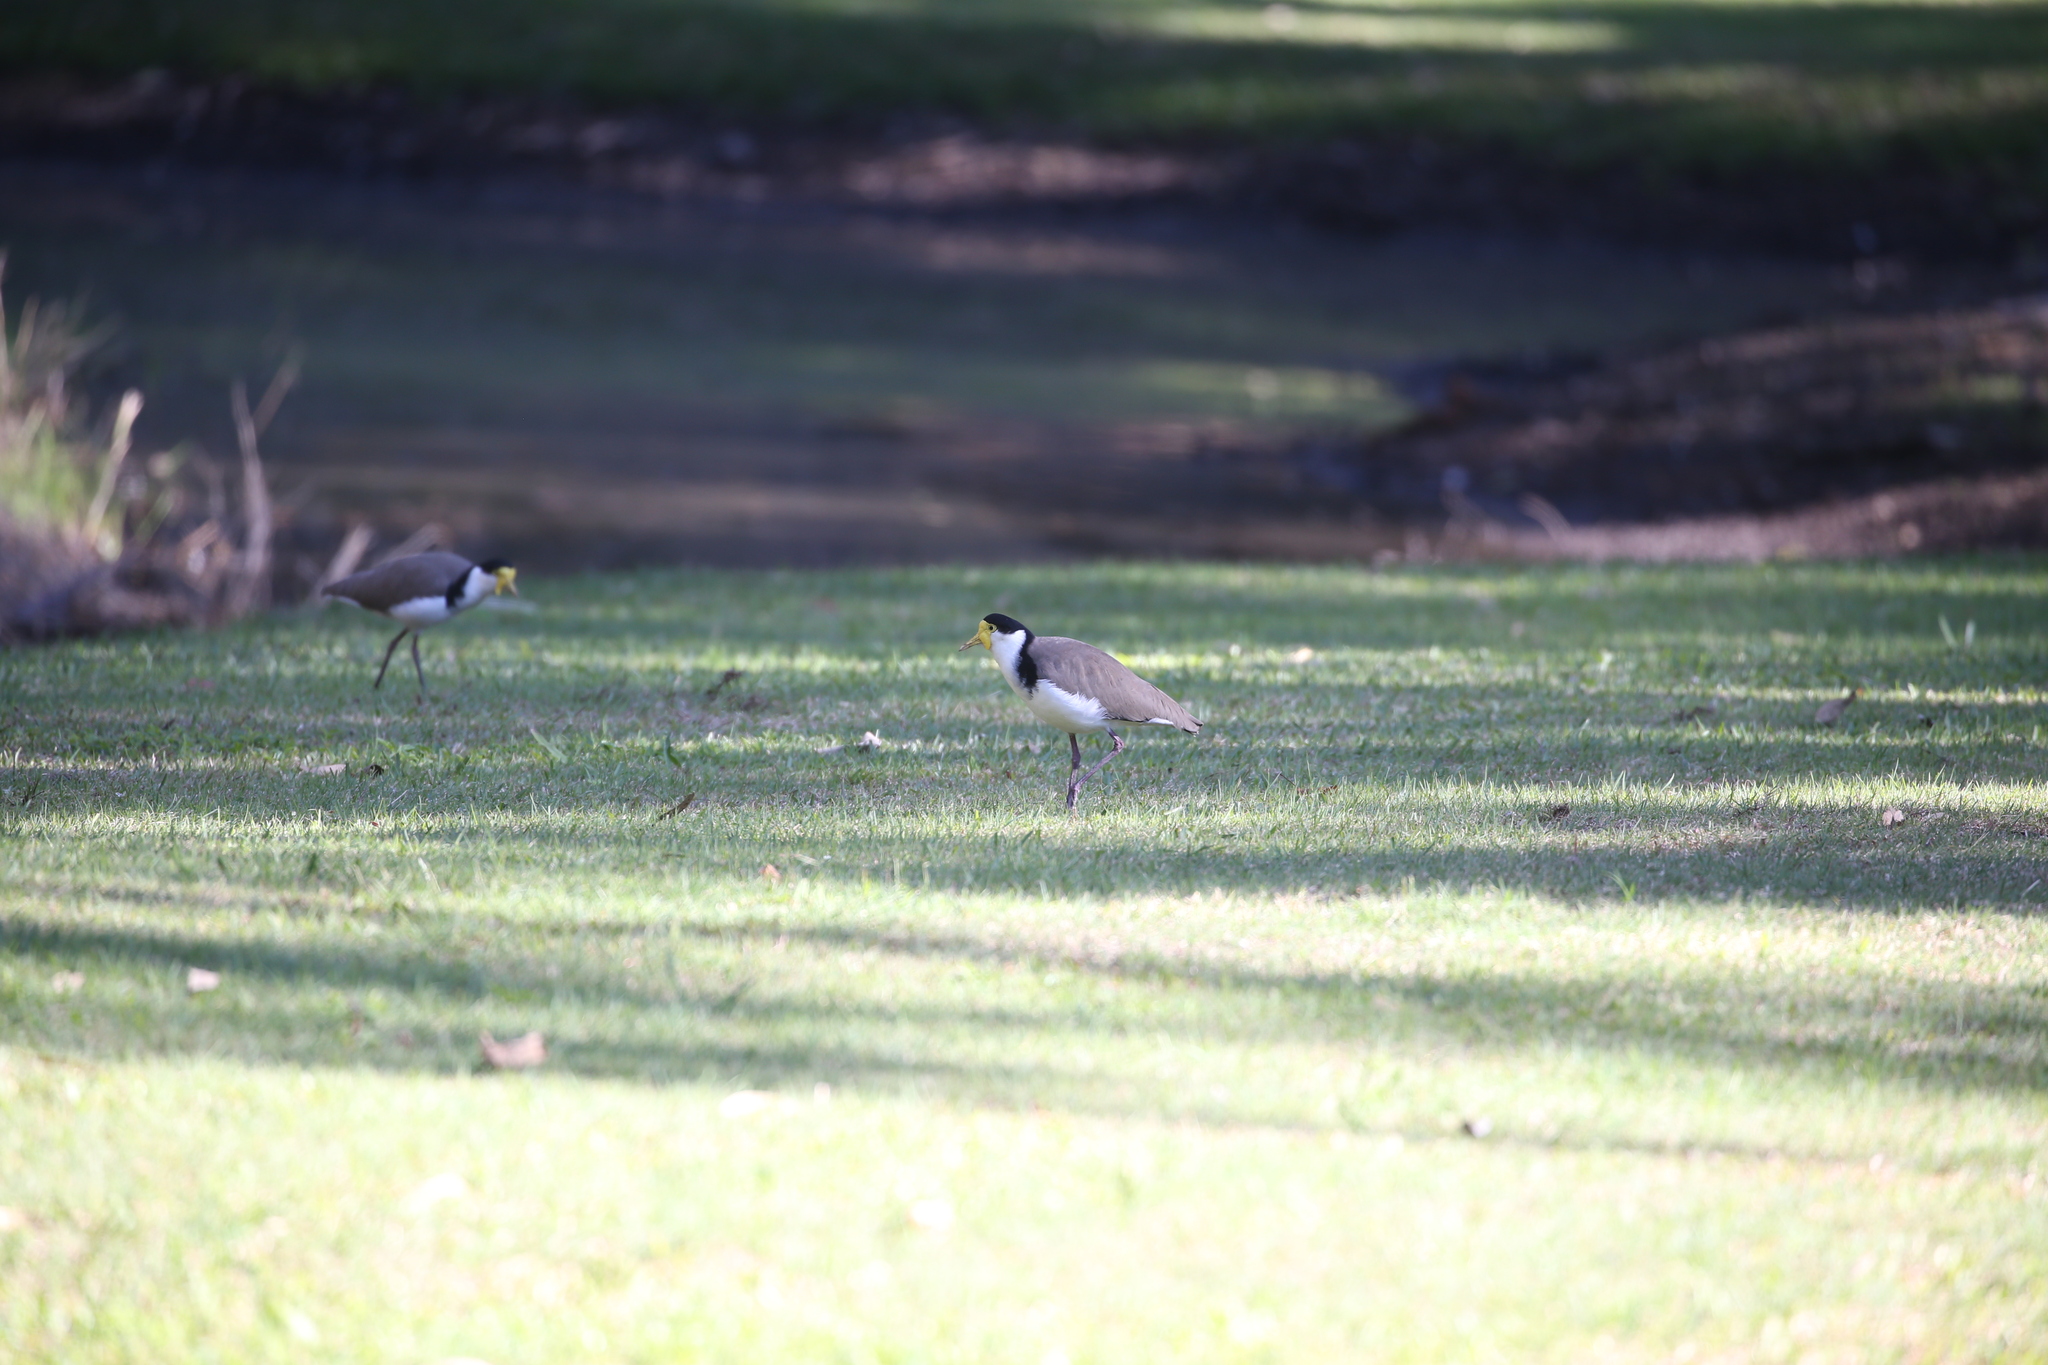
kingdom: Animalia
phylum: Chordata
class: Aves
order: Charadriiformes
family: Charadriidae
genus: Vanellus
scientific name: Vanellus miles
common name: Masked lapwing
